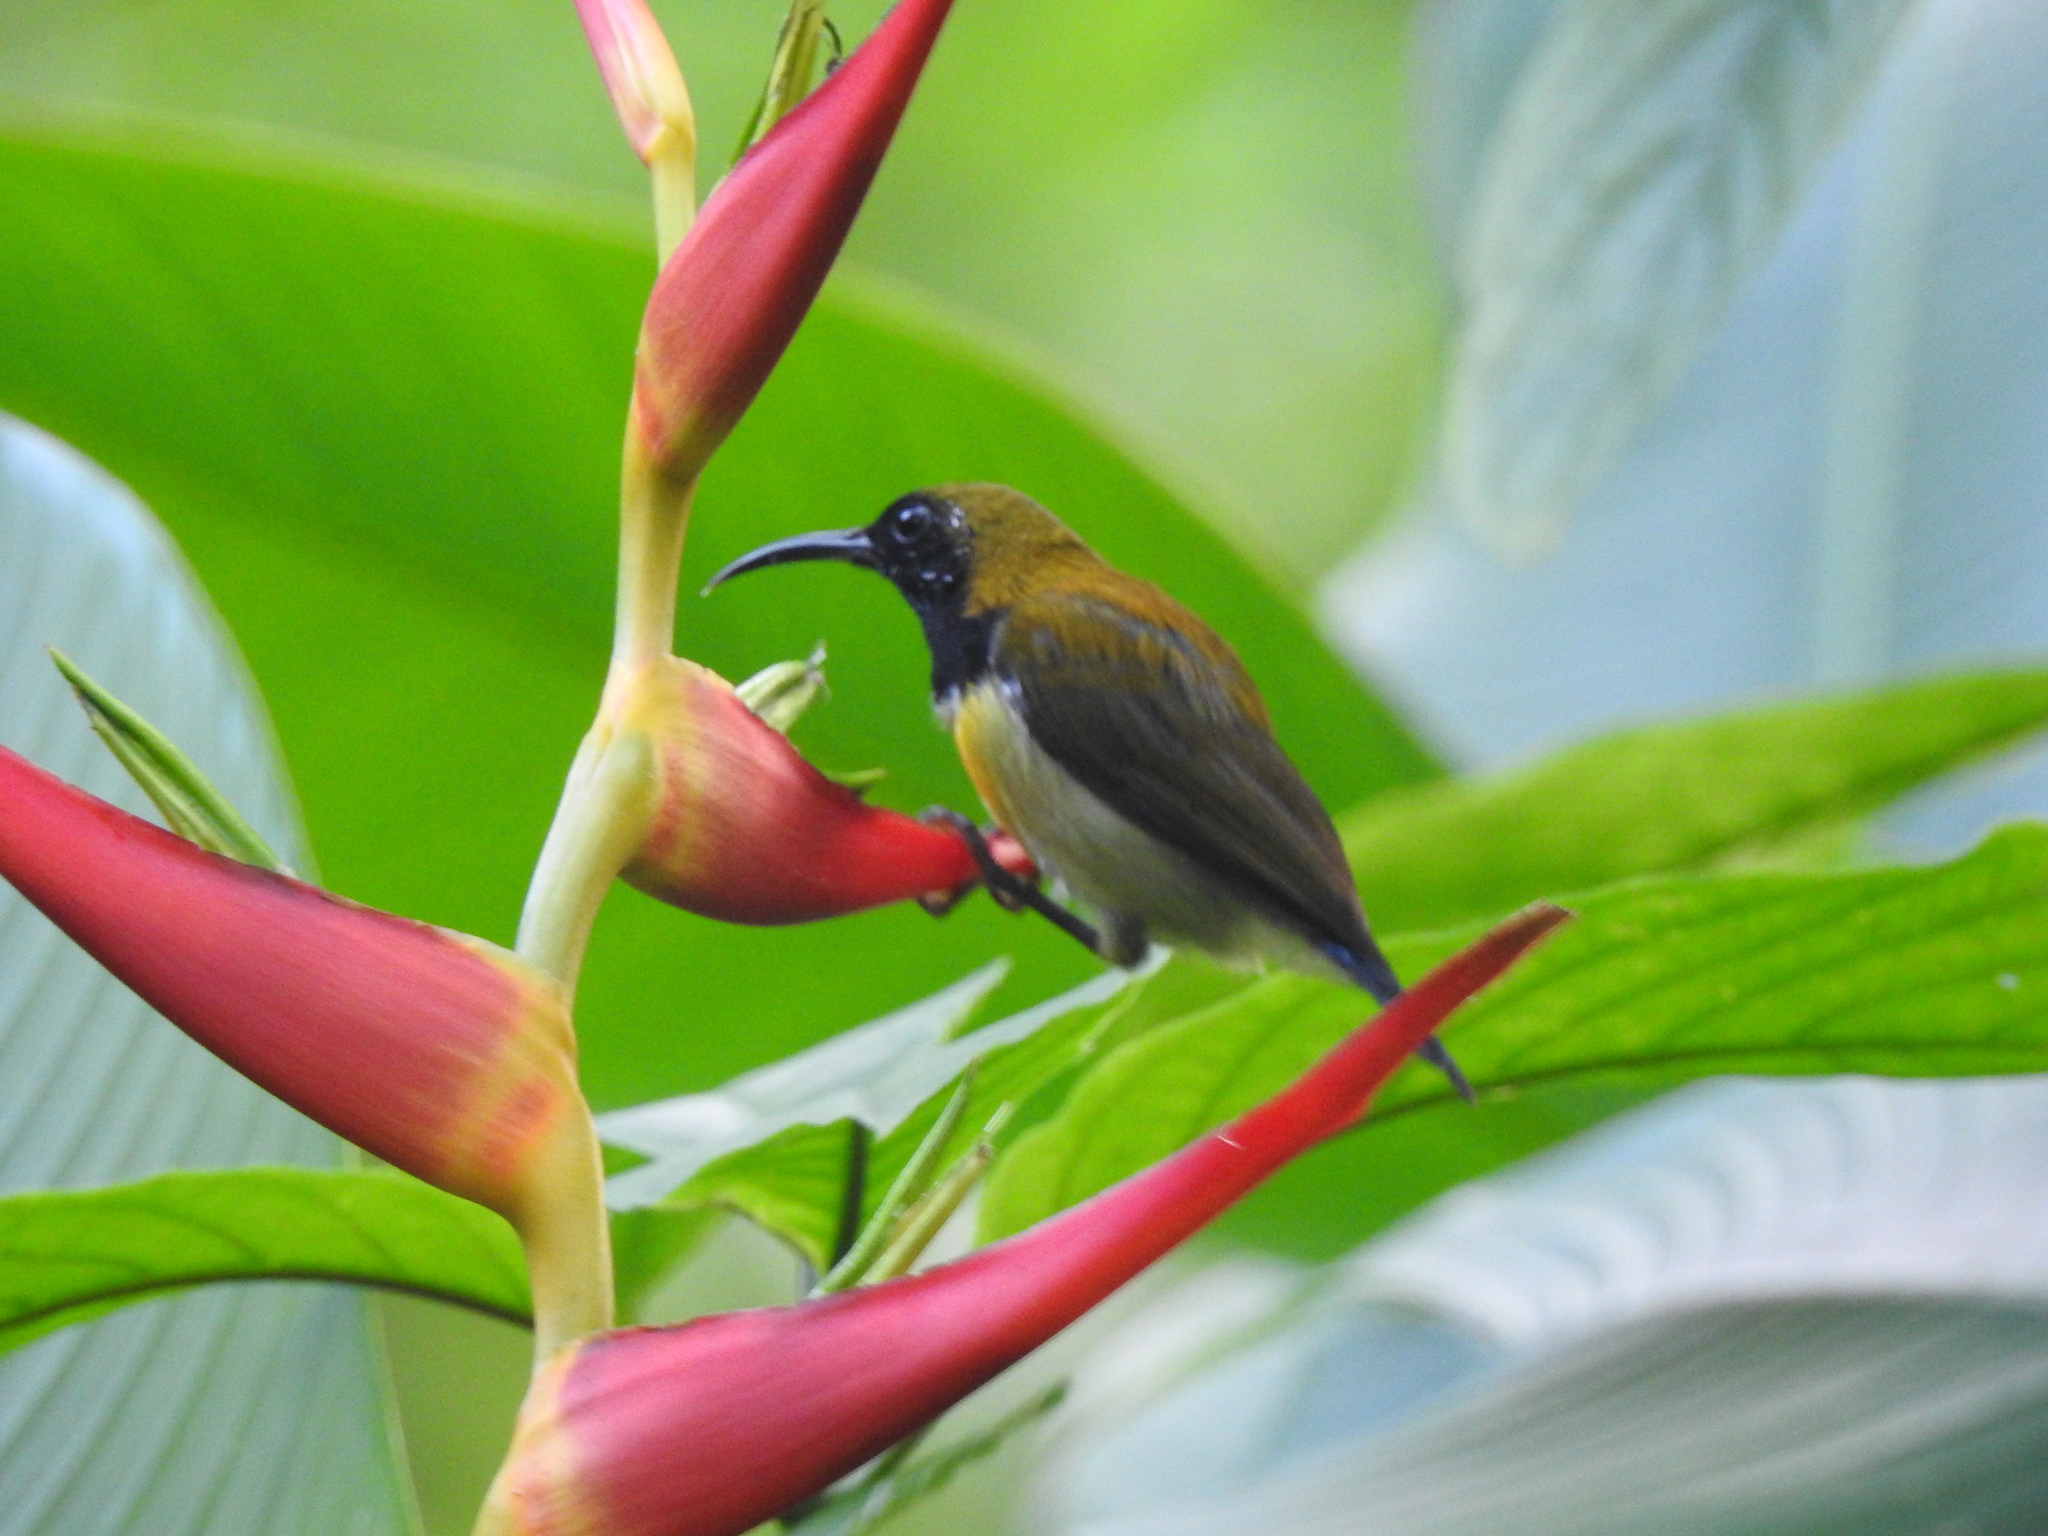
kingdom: Animalia
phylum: Chordata
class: Aves
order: Passeriformes
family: Nectariniidae
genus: Aethopyga
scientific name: Aethopyga flagrans
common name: Flaming sunbird
